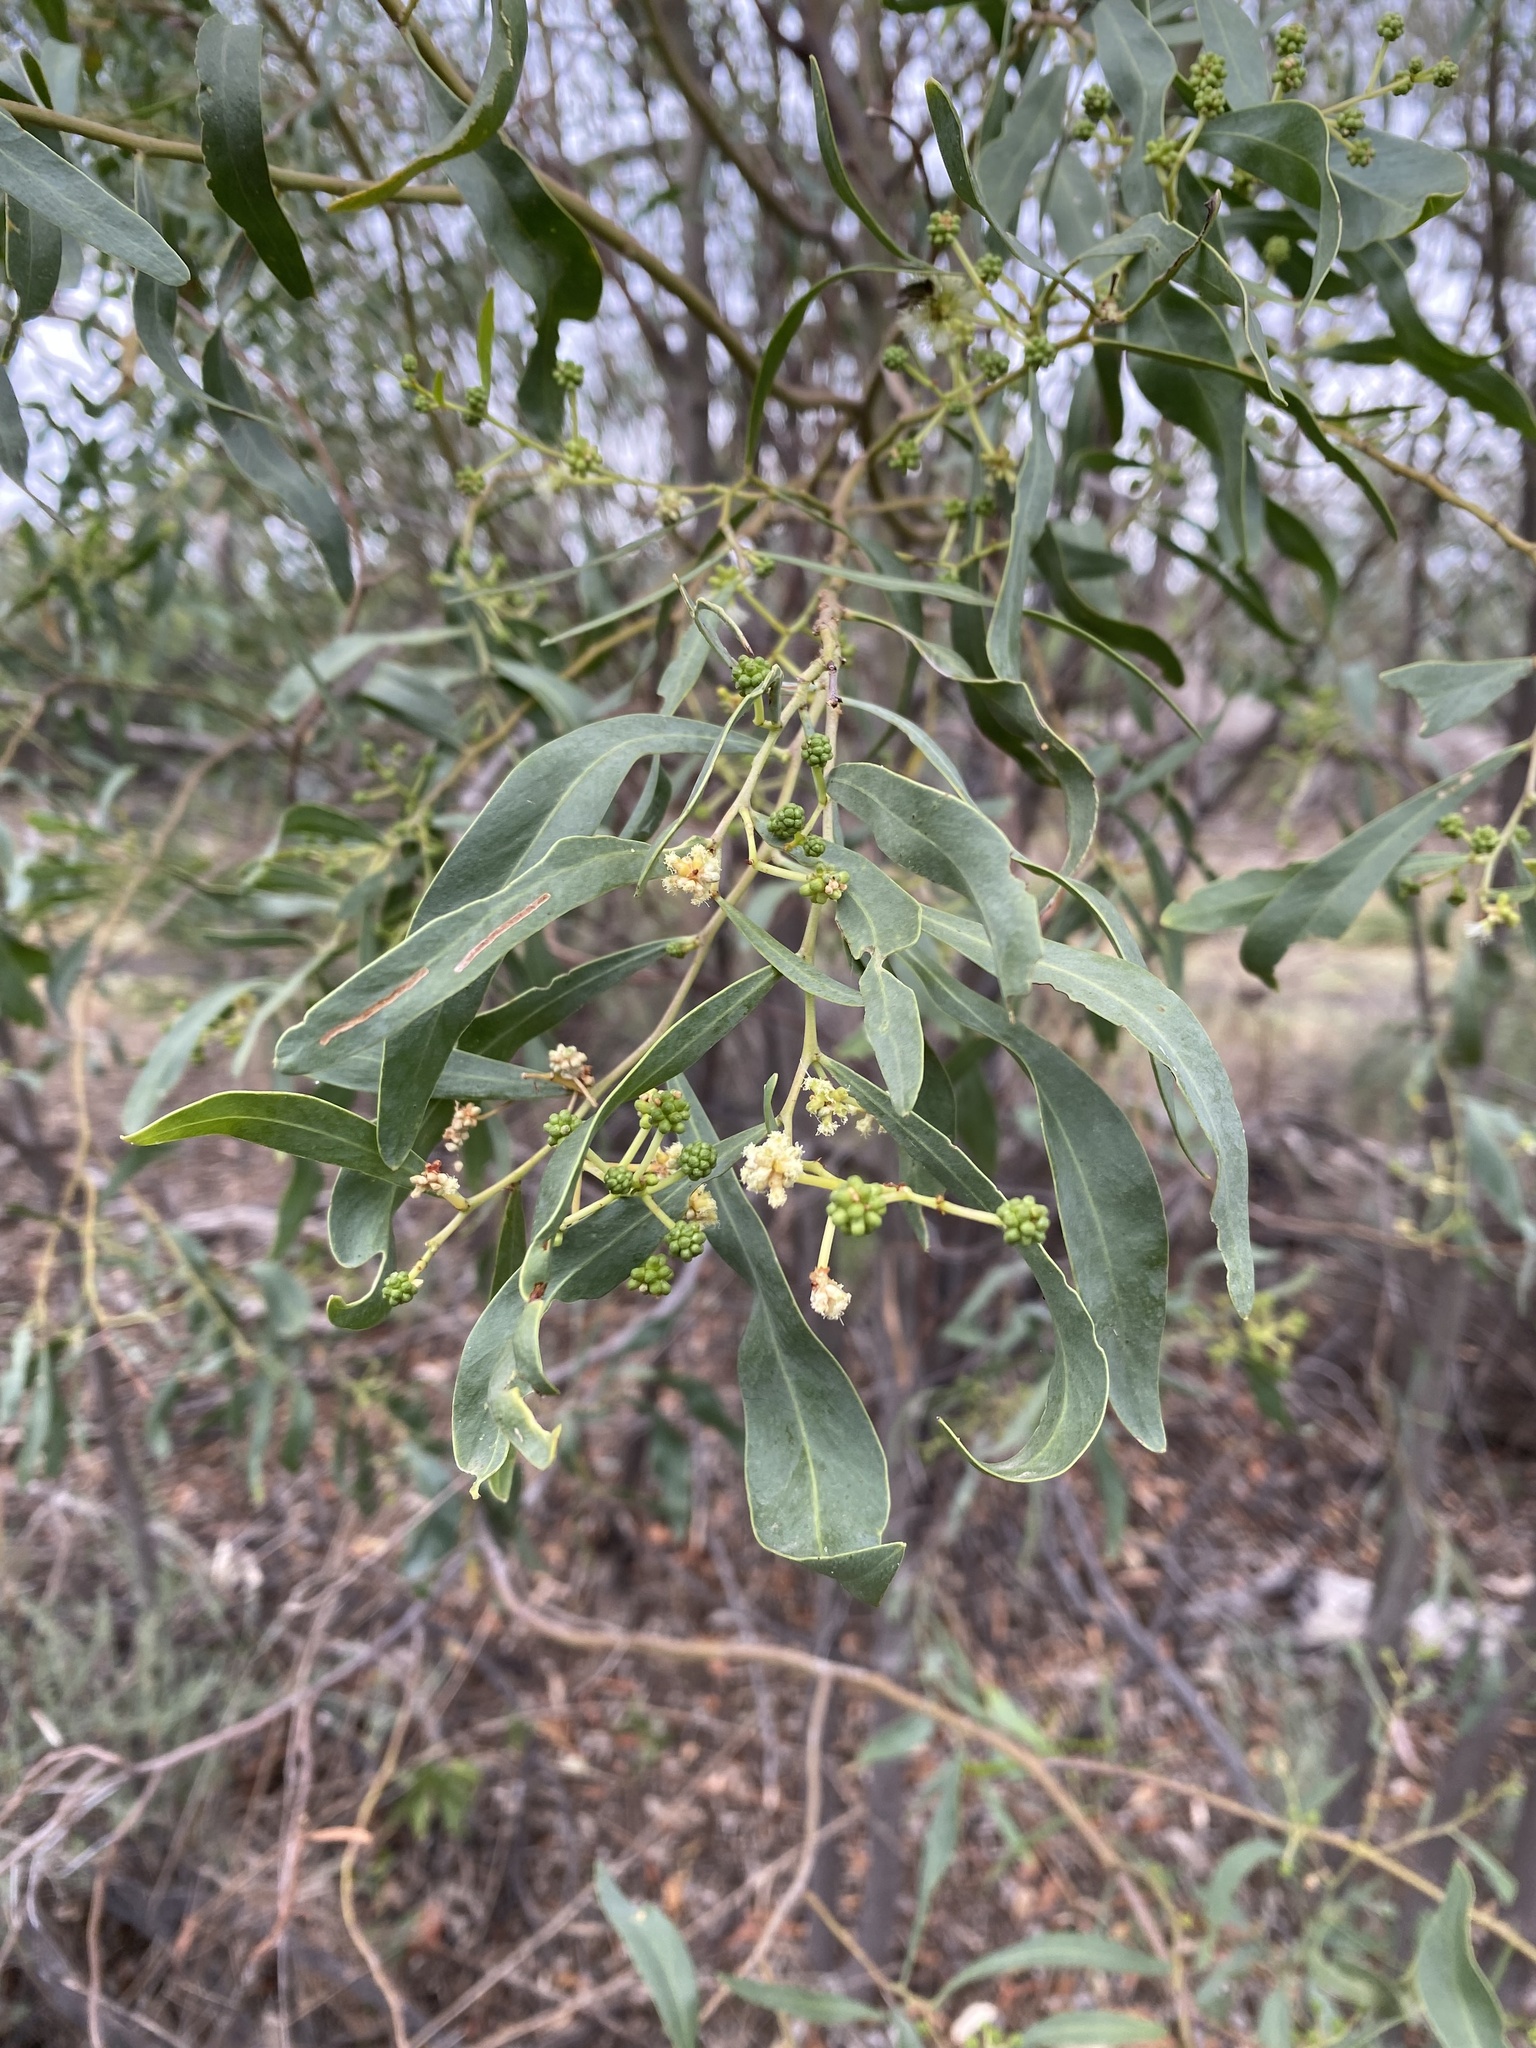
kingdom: Plantae
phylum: Tracheophyta
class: Magnoliopsida
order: Fabales
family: Fabaceae
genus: Acacia
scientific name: Acacia salicina
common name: Broughton willow wattle
